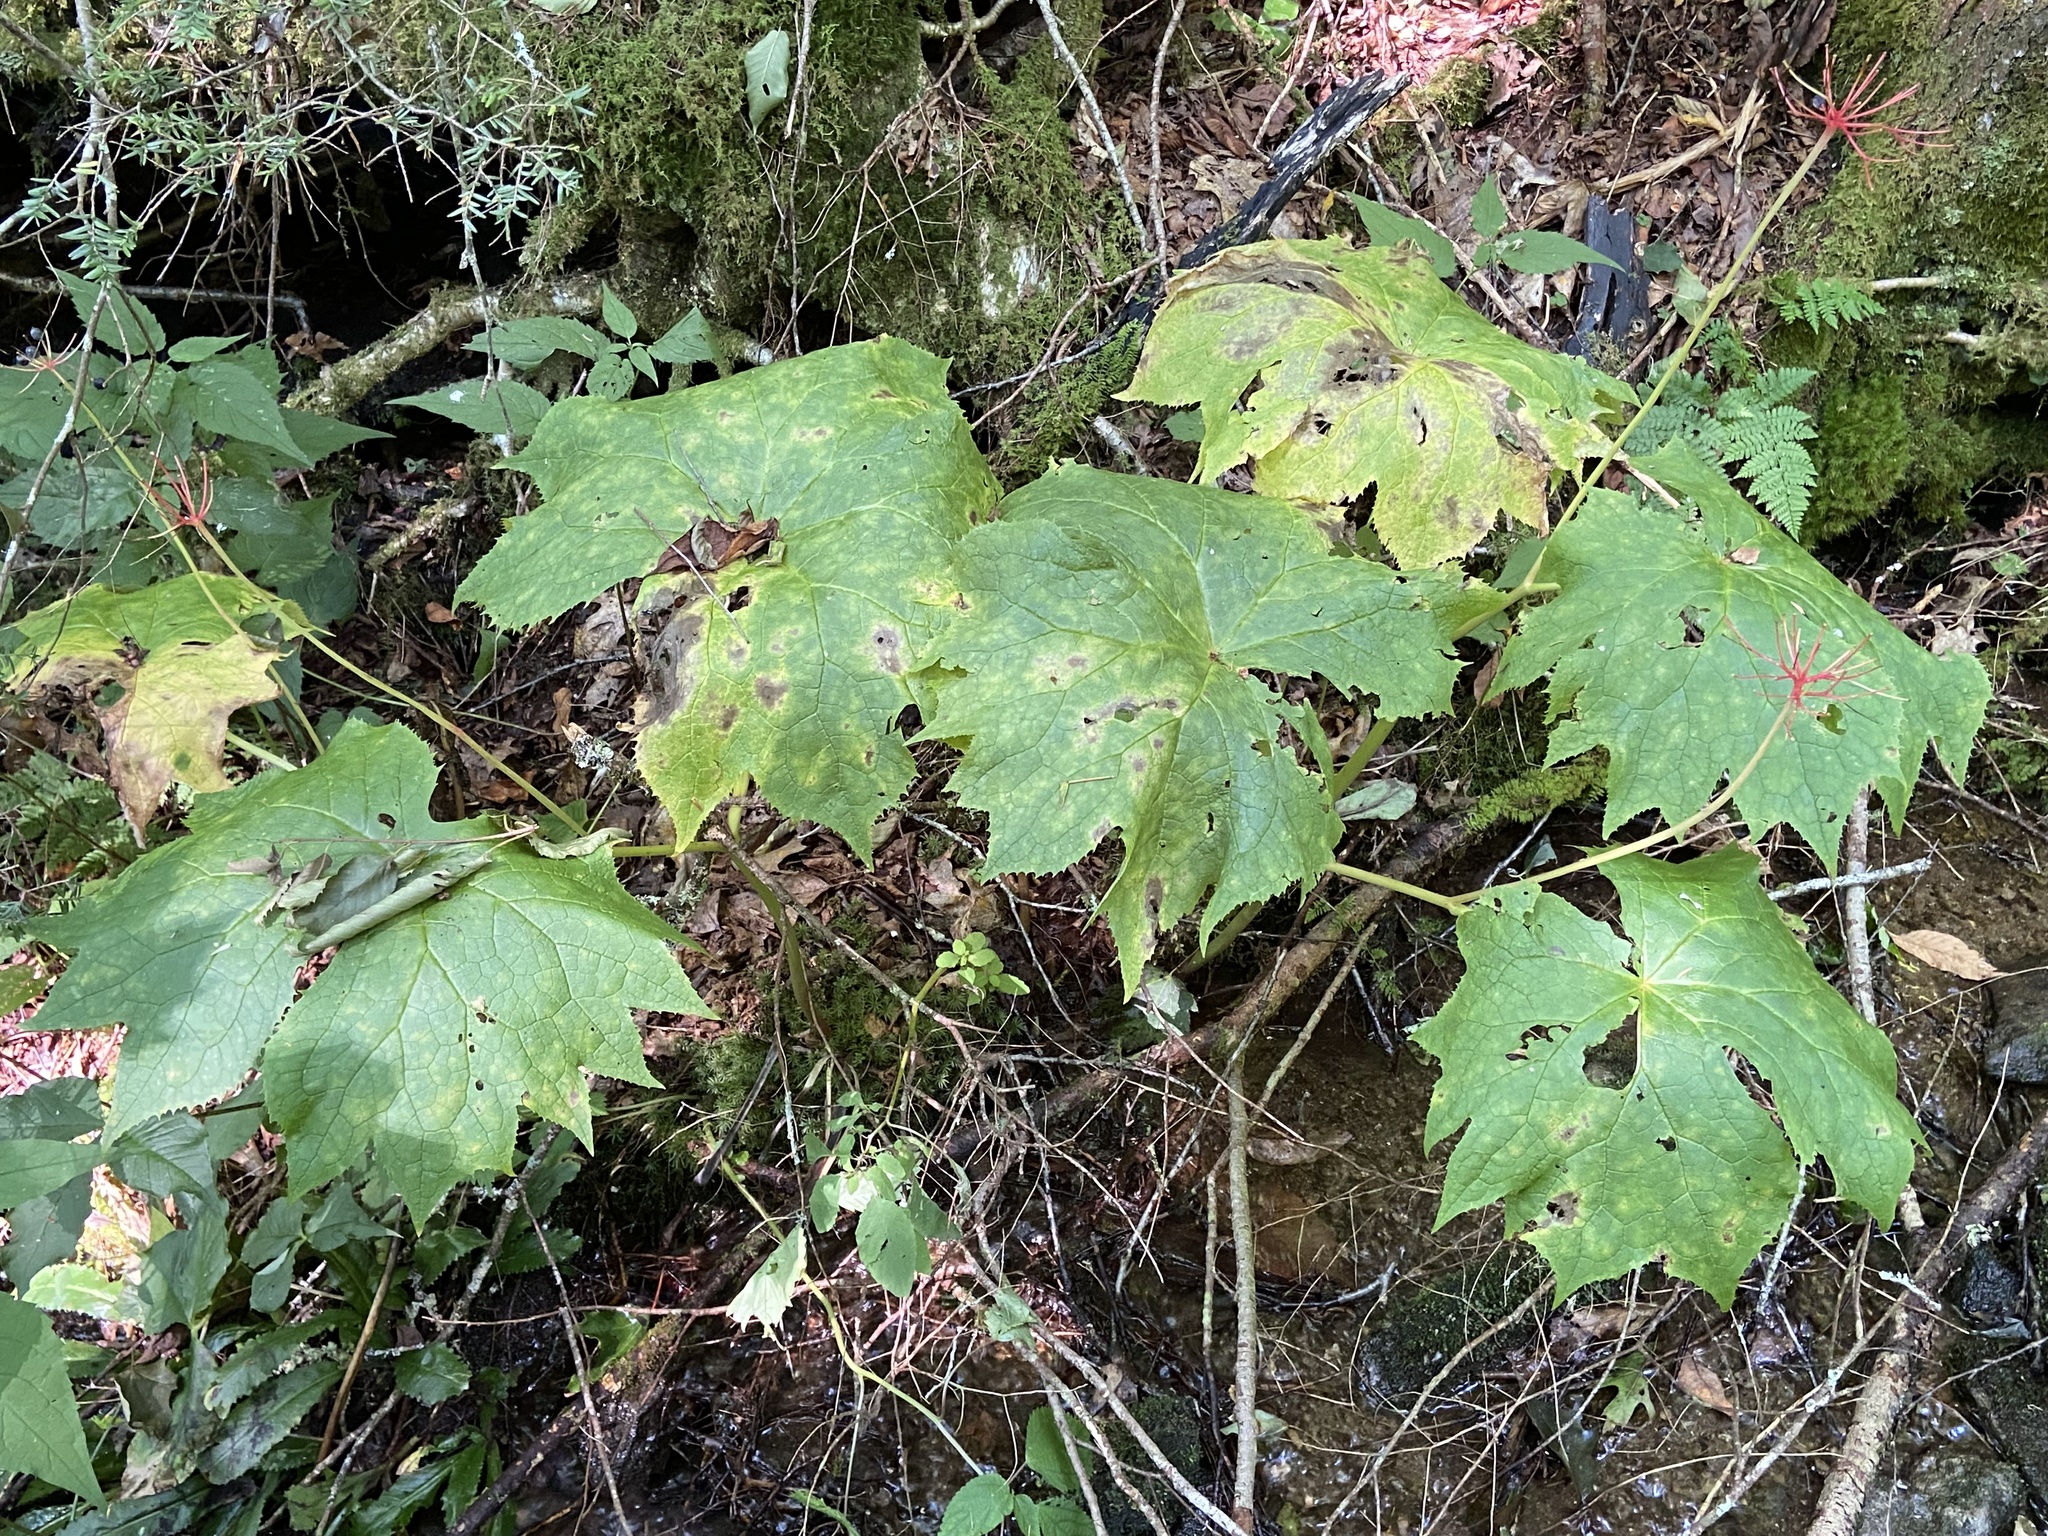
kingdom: Plantae
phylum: Tracheophyta
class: Magnoliopsida
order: Ranunculales
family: Berberidaceae
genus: Diphylleia
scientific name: Diphylleia cymosa
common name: Umbrella-leaf
